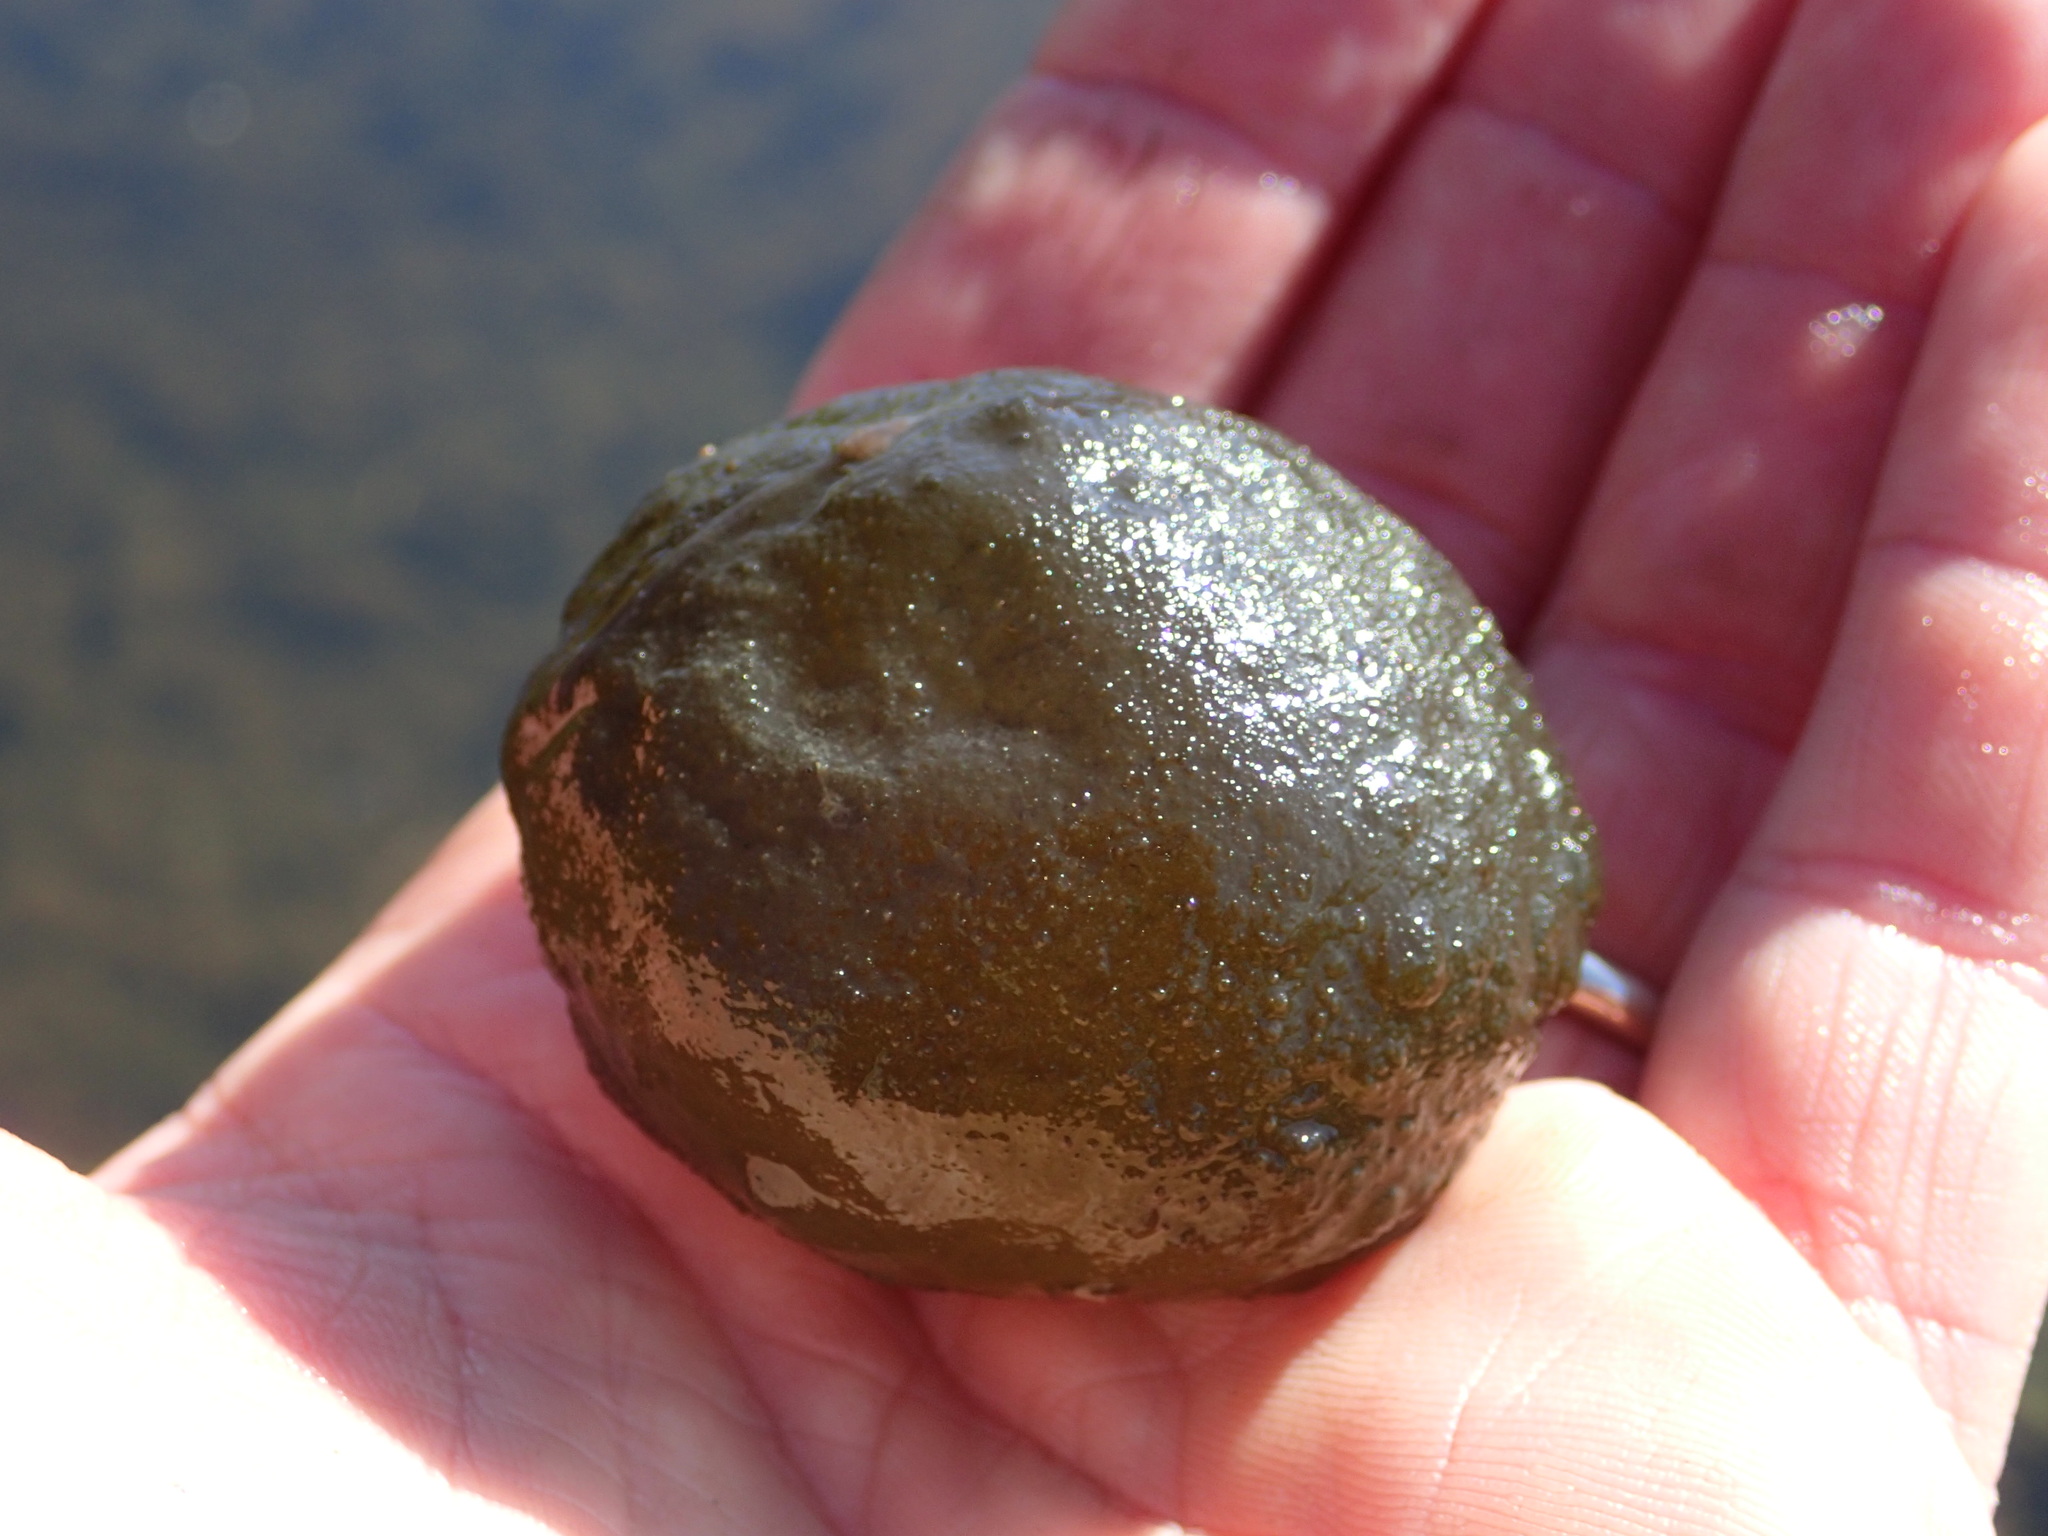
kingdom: Bacteria
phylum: Cyanobacteria
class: Cyanobacteriia
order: Cyanobacteriales
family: Nostocaceae
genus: Nostoc
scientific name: Nostoc pruniforme
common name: Mare's eggs
